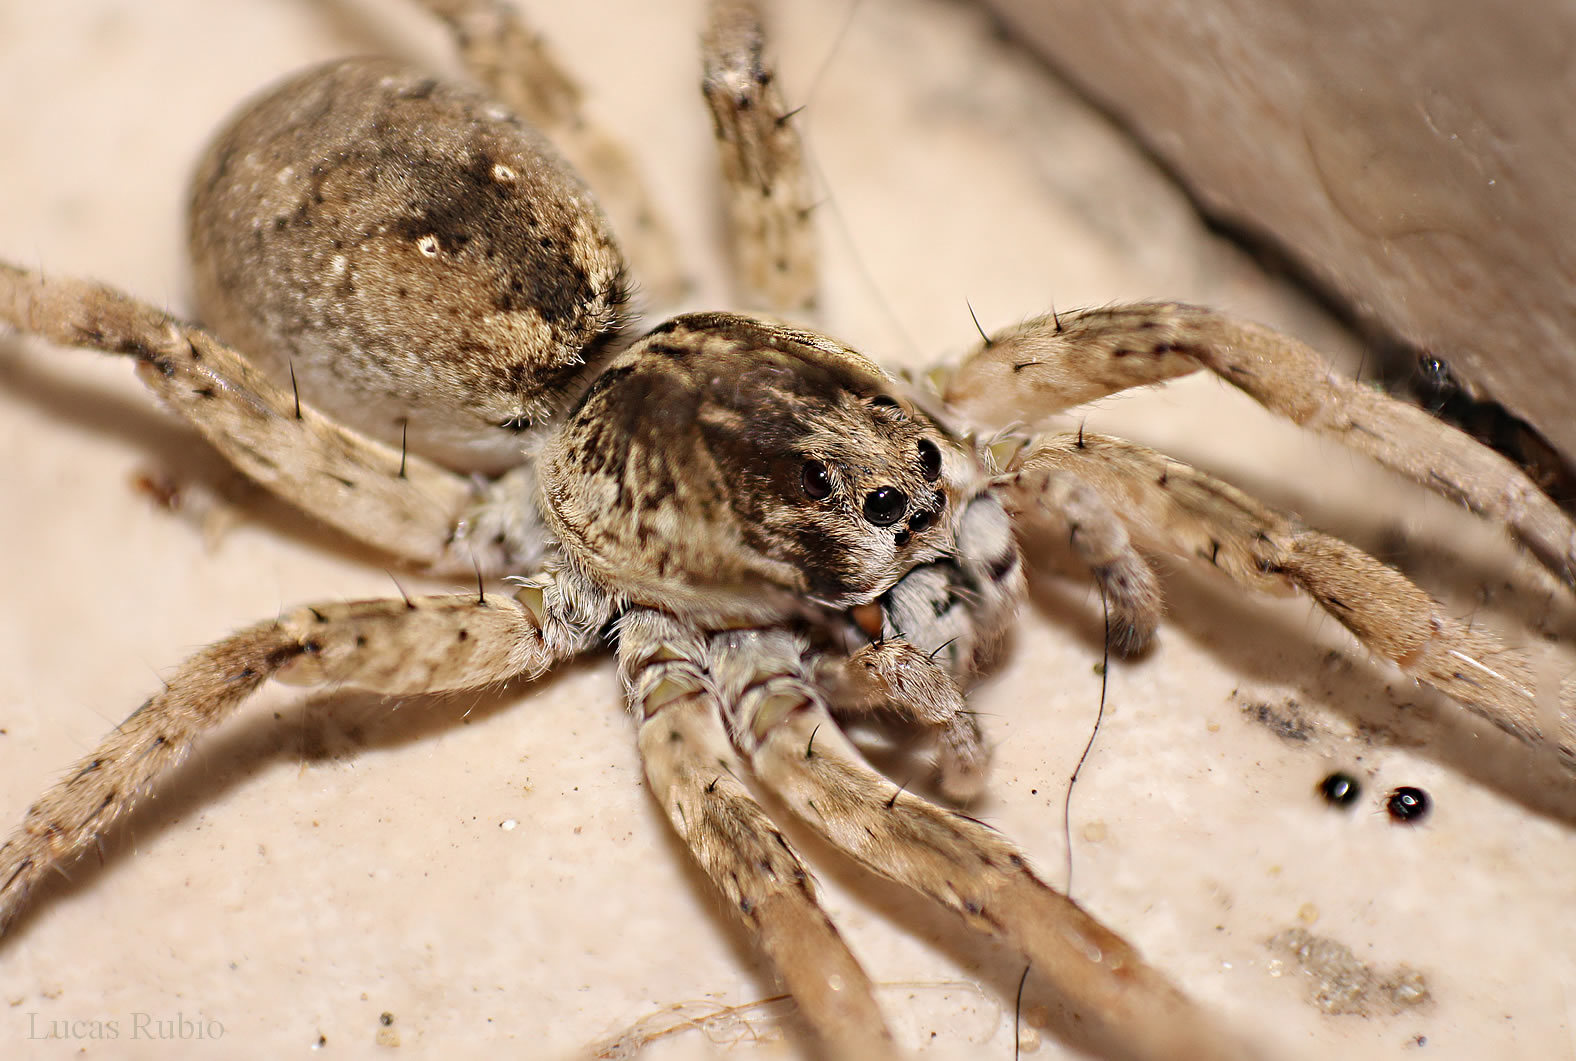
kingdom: Animalia
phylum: Arthropoda
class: Arachnida
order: Araneae
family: Lycosidae
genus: Hogna
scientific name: Hogna variolosa
